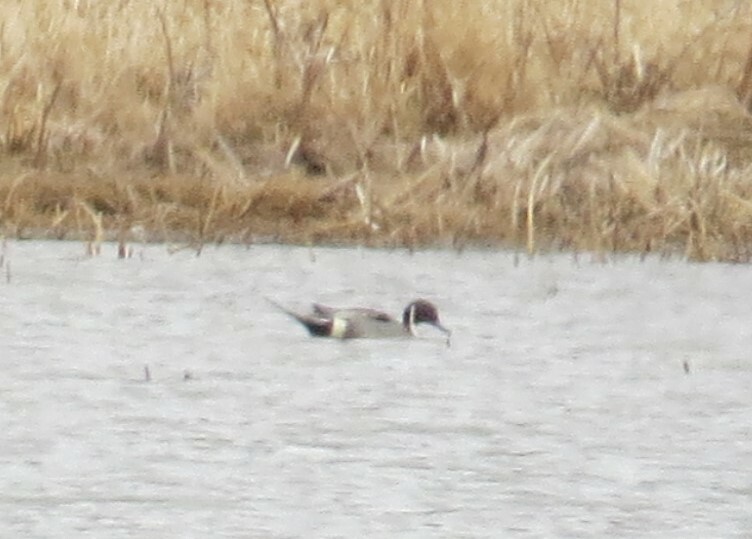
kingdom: Animalia
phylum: Chordata
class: Aves
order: Anseriformes
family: Anatidae
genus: Anas
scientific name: Anas acuta
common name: Northern pintail
